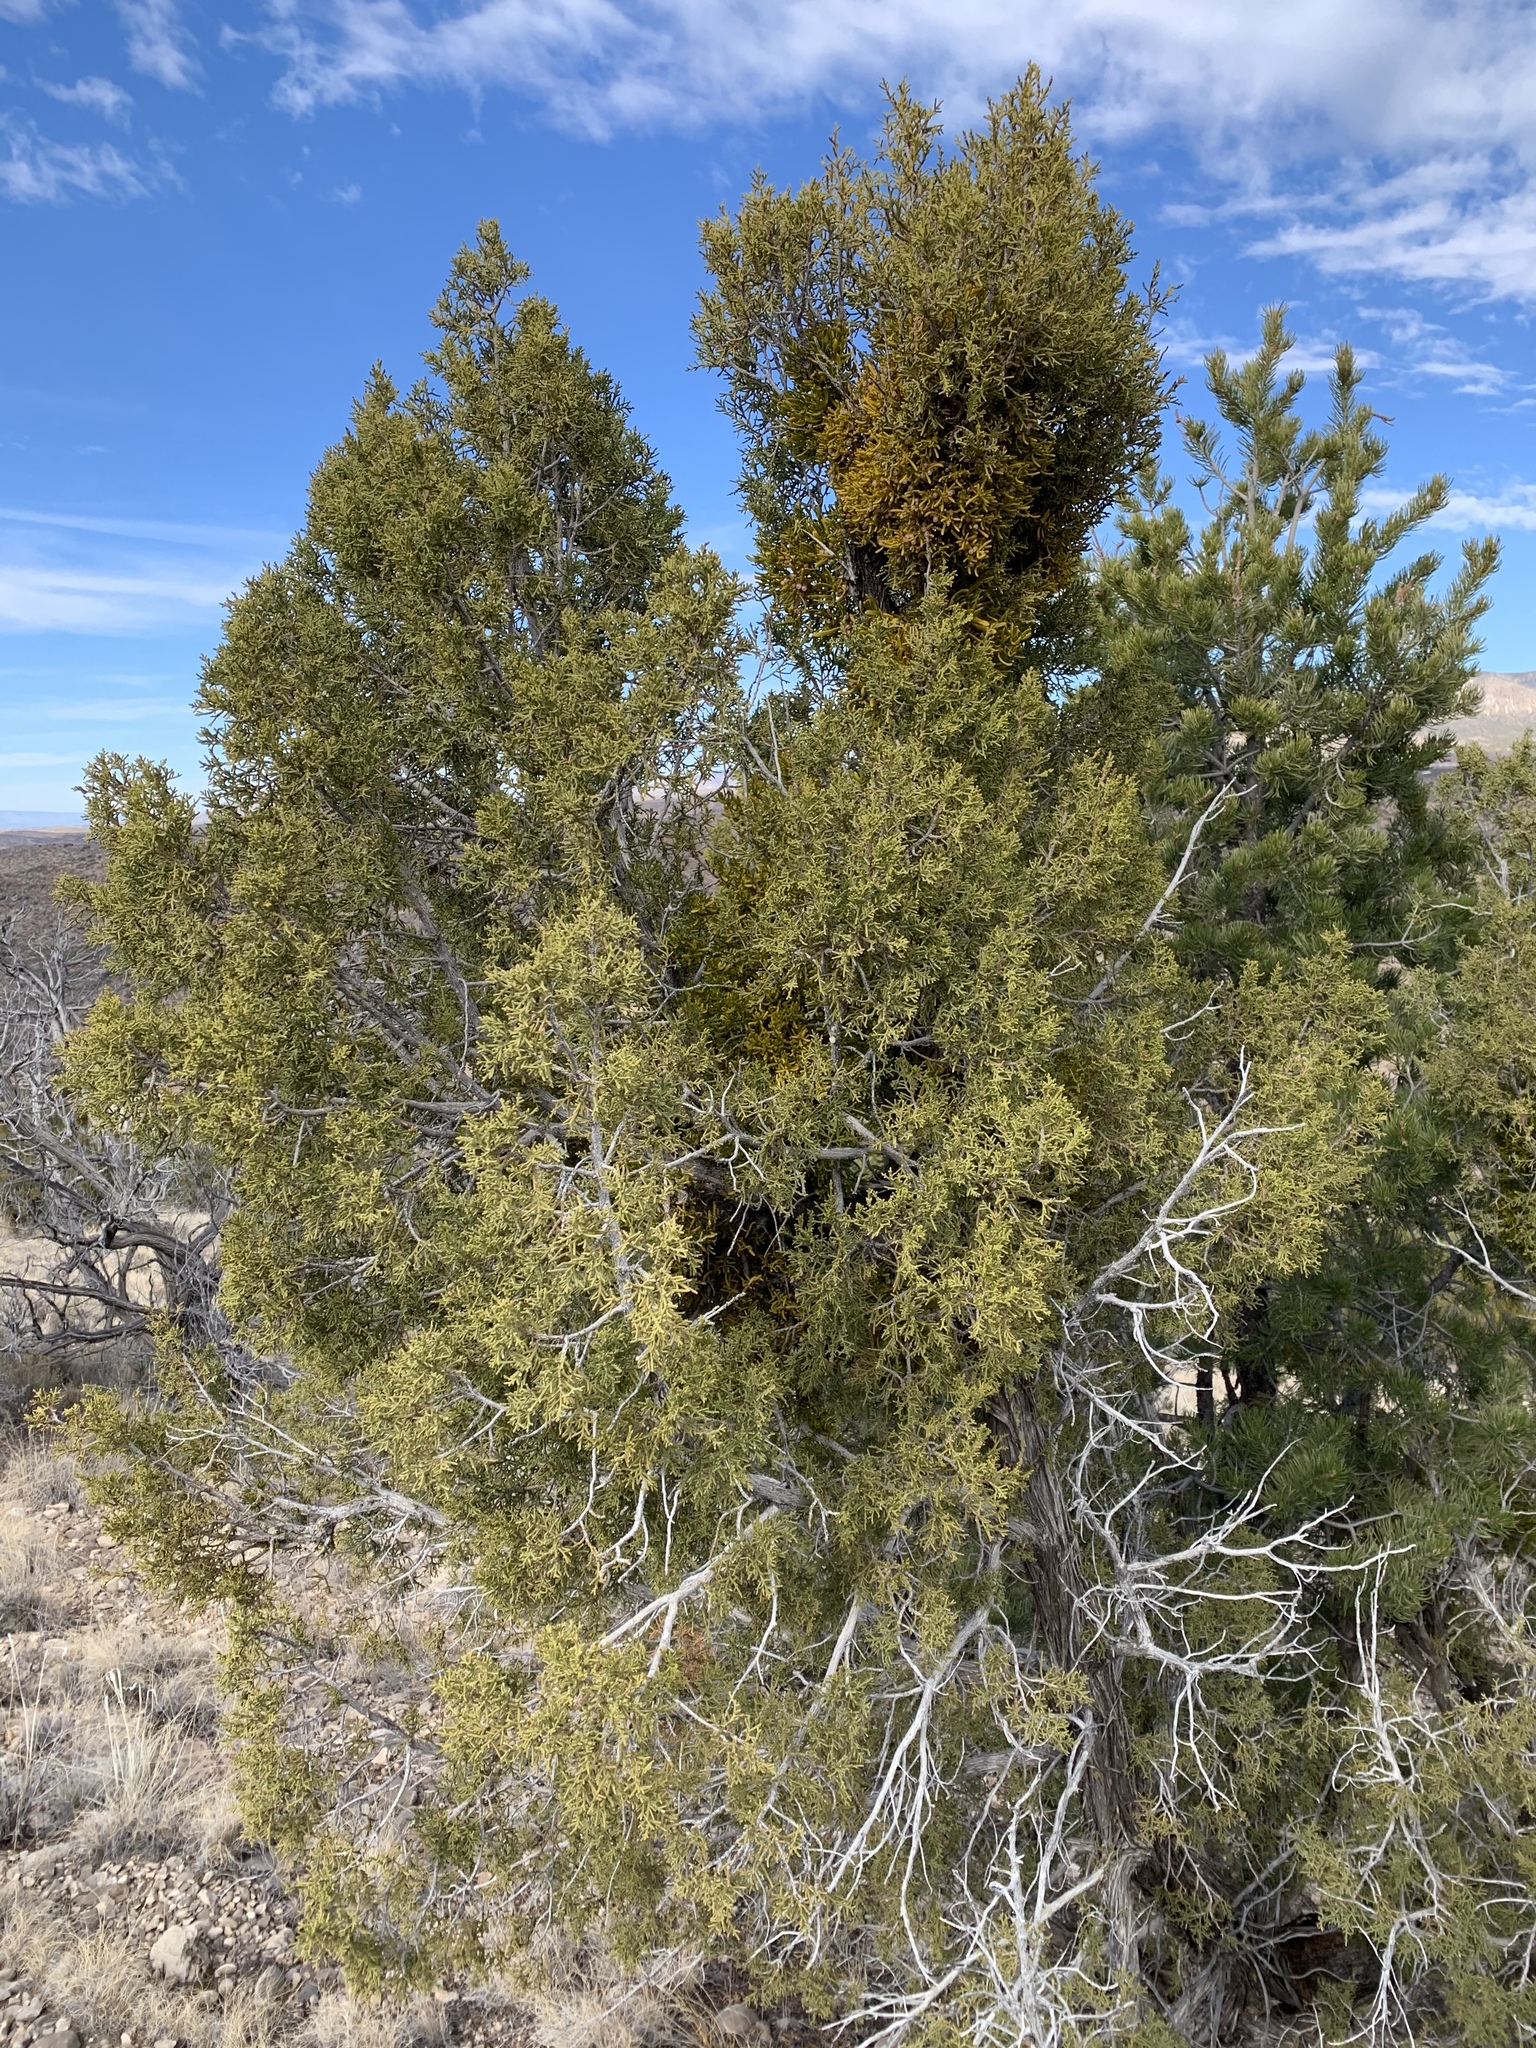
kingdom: Plantae
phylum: Tracheophyta
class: Pinopsida
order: Pinales
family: Cupressaceae
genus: Juniperus
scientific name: Juniperus monosperma
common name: One-seed juniper
